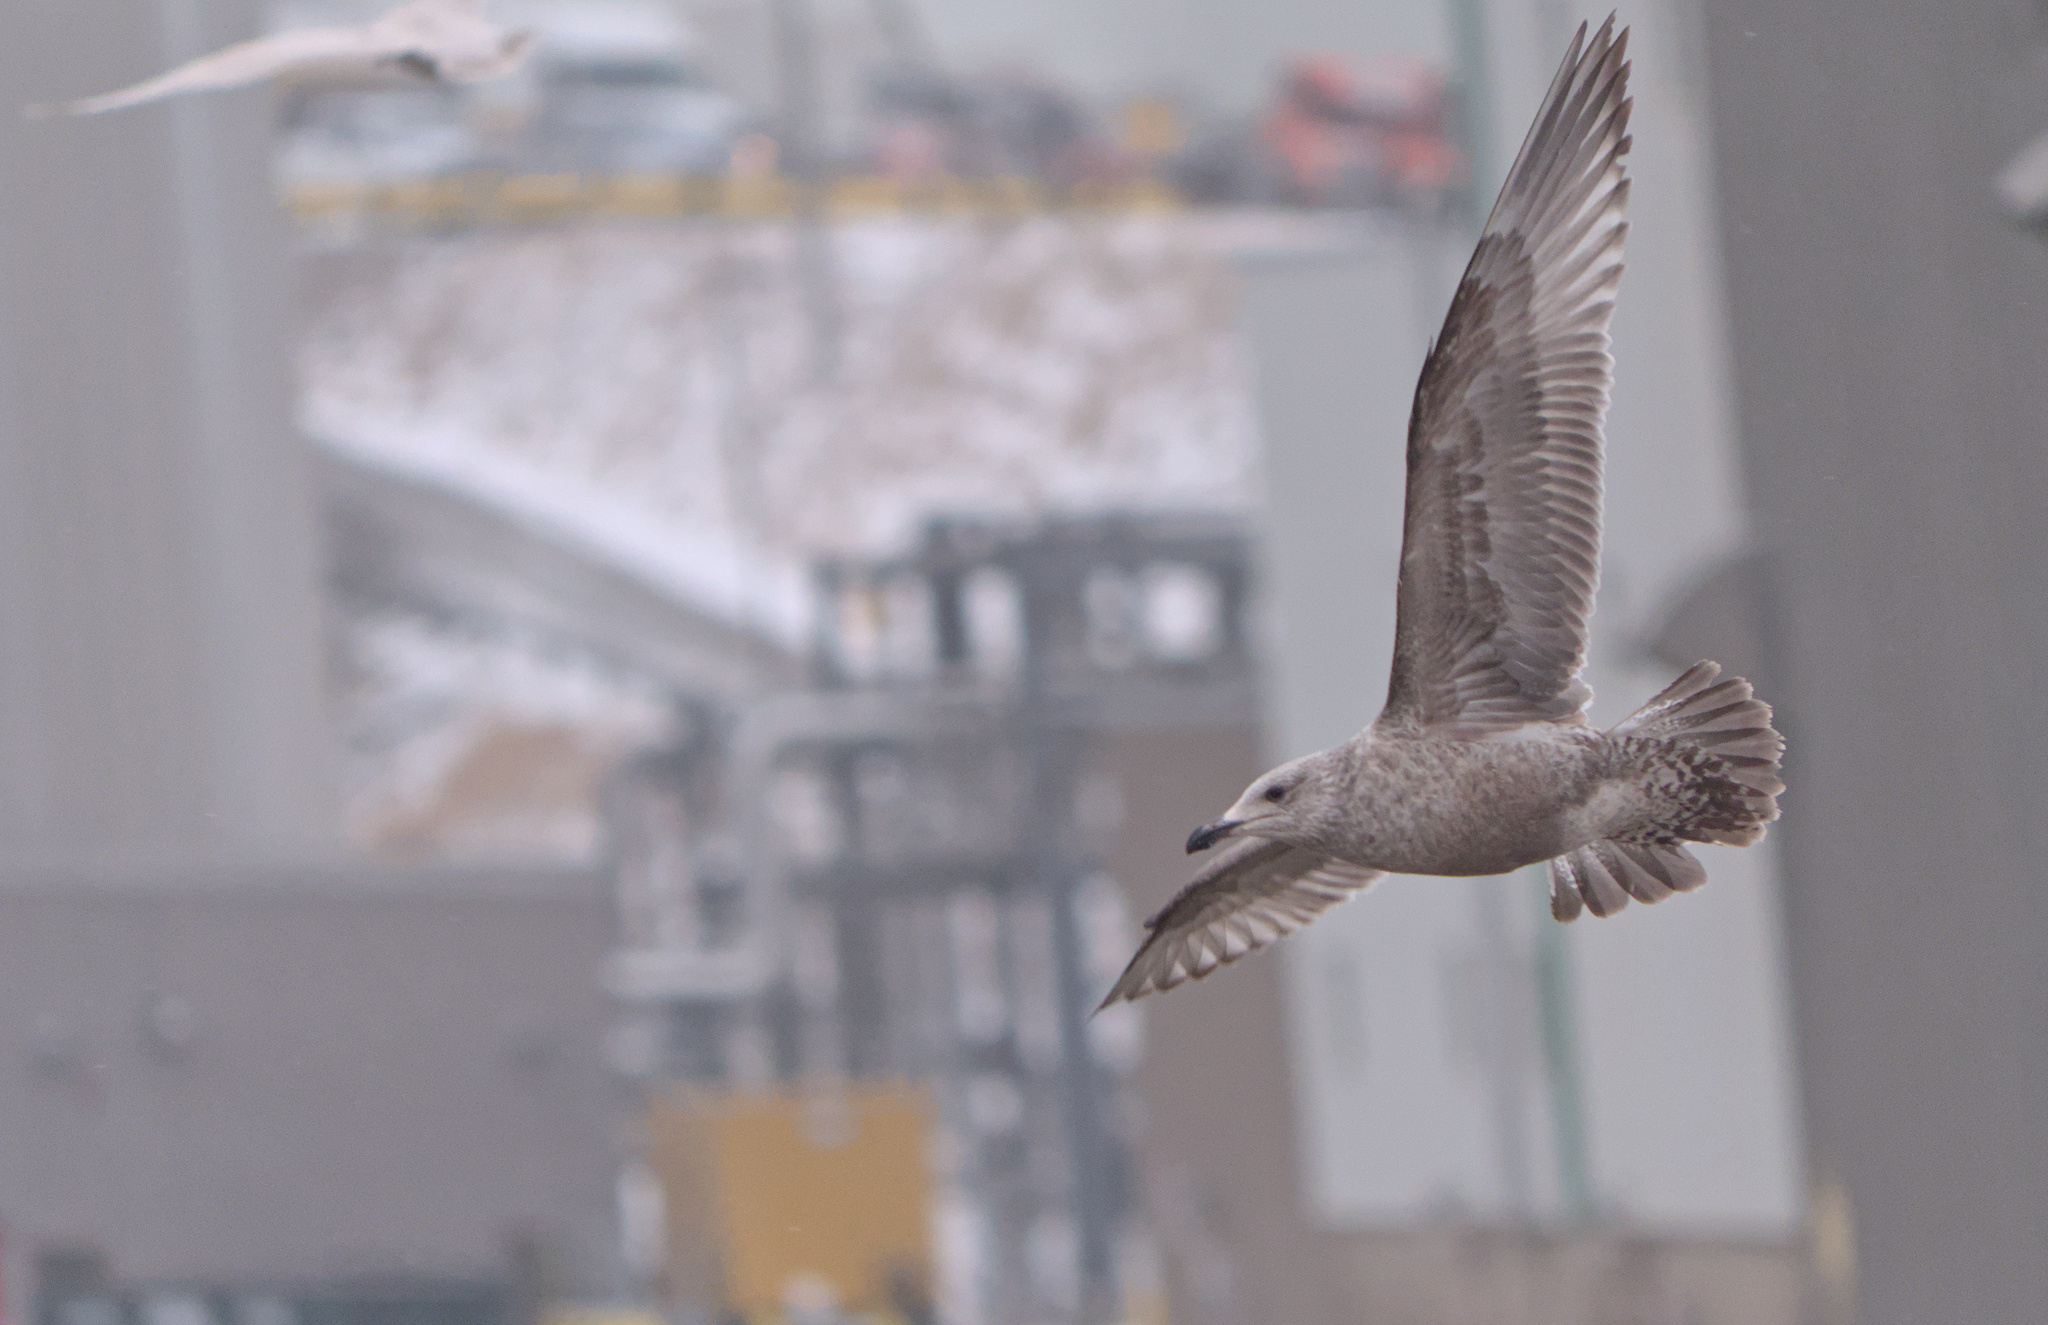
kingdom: Animalia
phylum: Chordata
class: Aves
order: Charadriiformes
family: Laridae
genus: Larus
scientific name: Larus argentatus
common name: Herring gull
